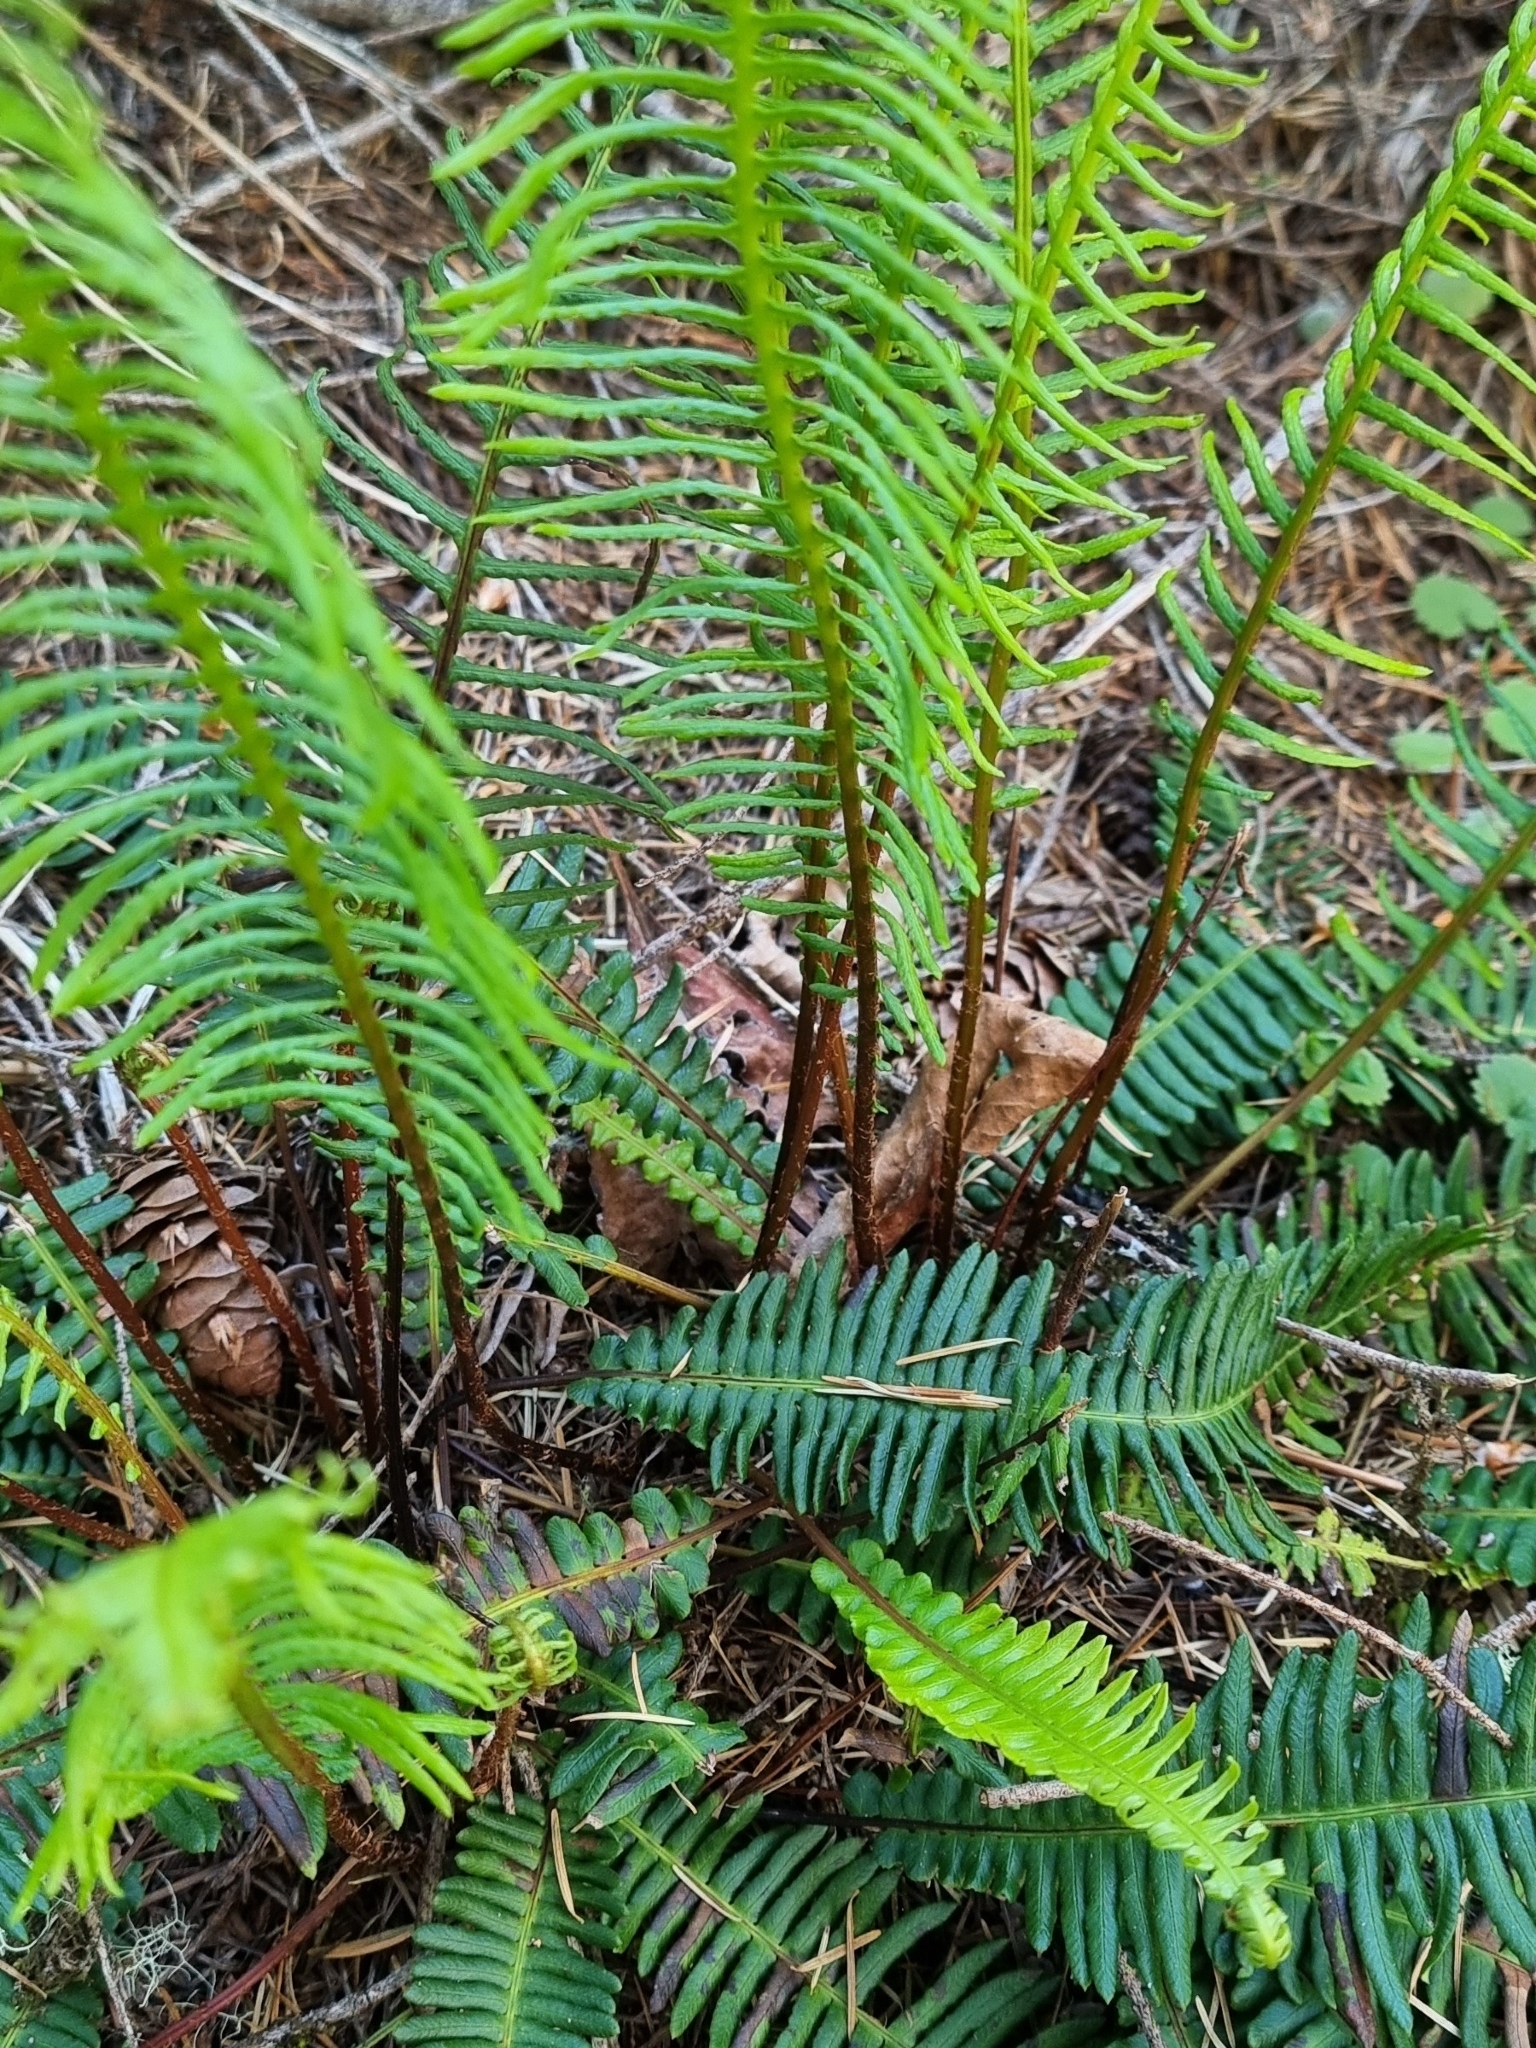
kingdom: Plantae
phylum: Tracheophyta
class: Polypodiopsida
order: Polypodiales
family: Blechnaceae
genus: Struthiopteris
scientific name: Struthiopteris spicant
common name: Deer fern
